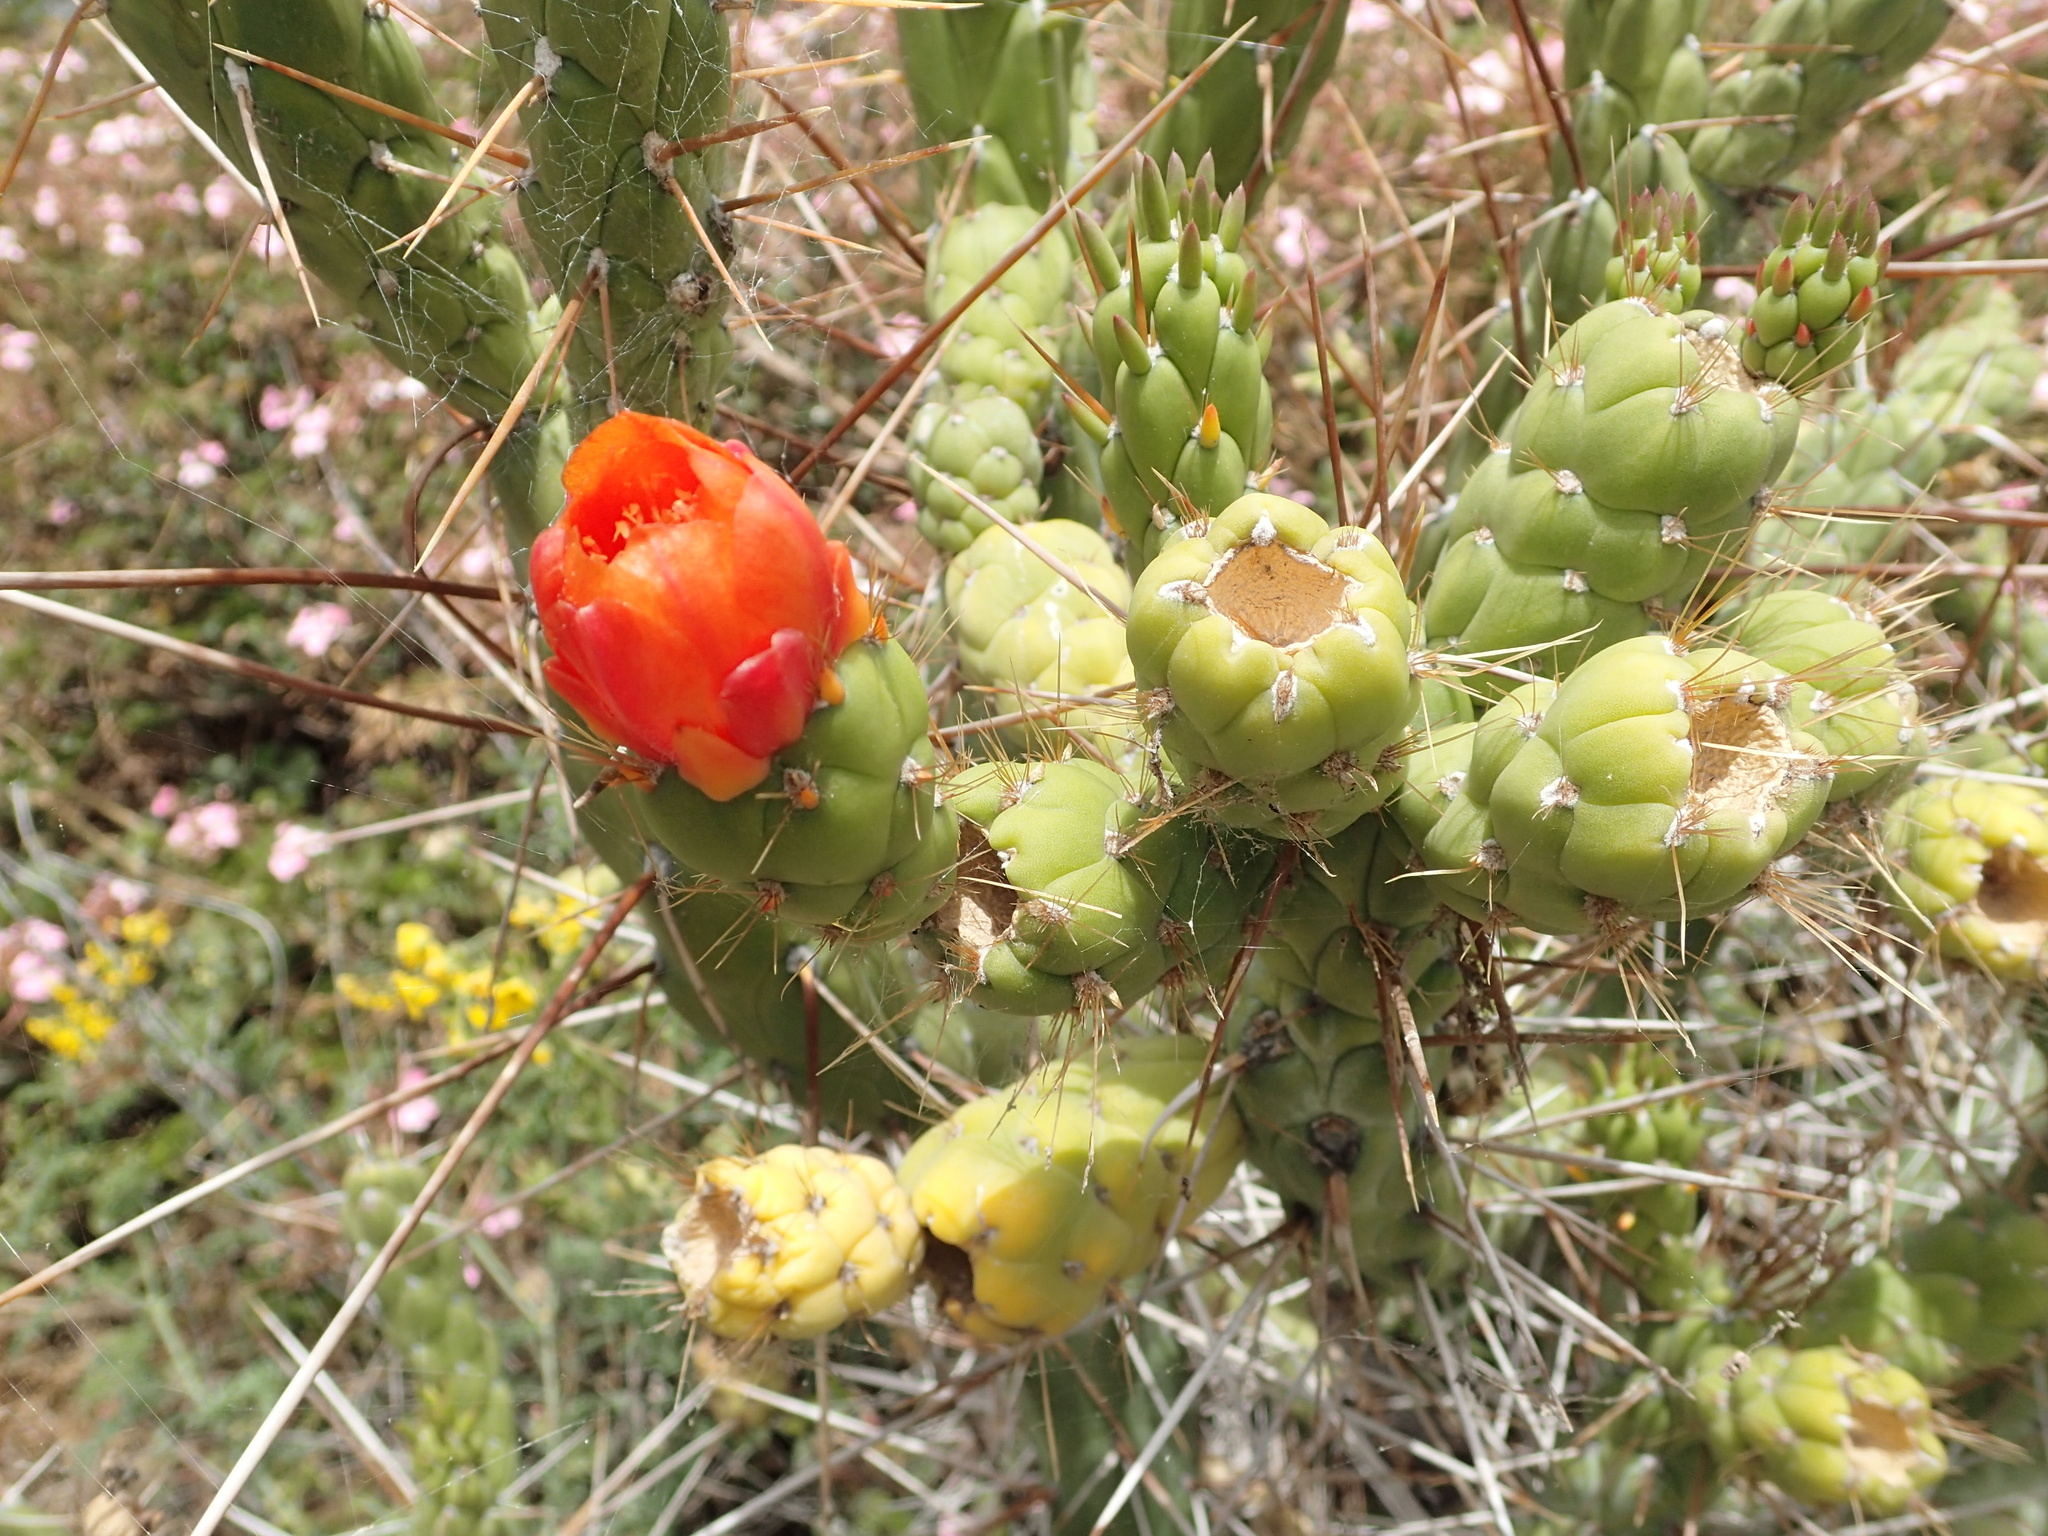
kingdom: Plantae
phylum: Tracheophyta
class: Magnoliopsida
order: Caryophyllales
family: Cactaceae
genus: Austrocylindropuntia
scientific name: Austrocylindropuntia subulata
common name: Eve's needle cactus
